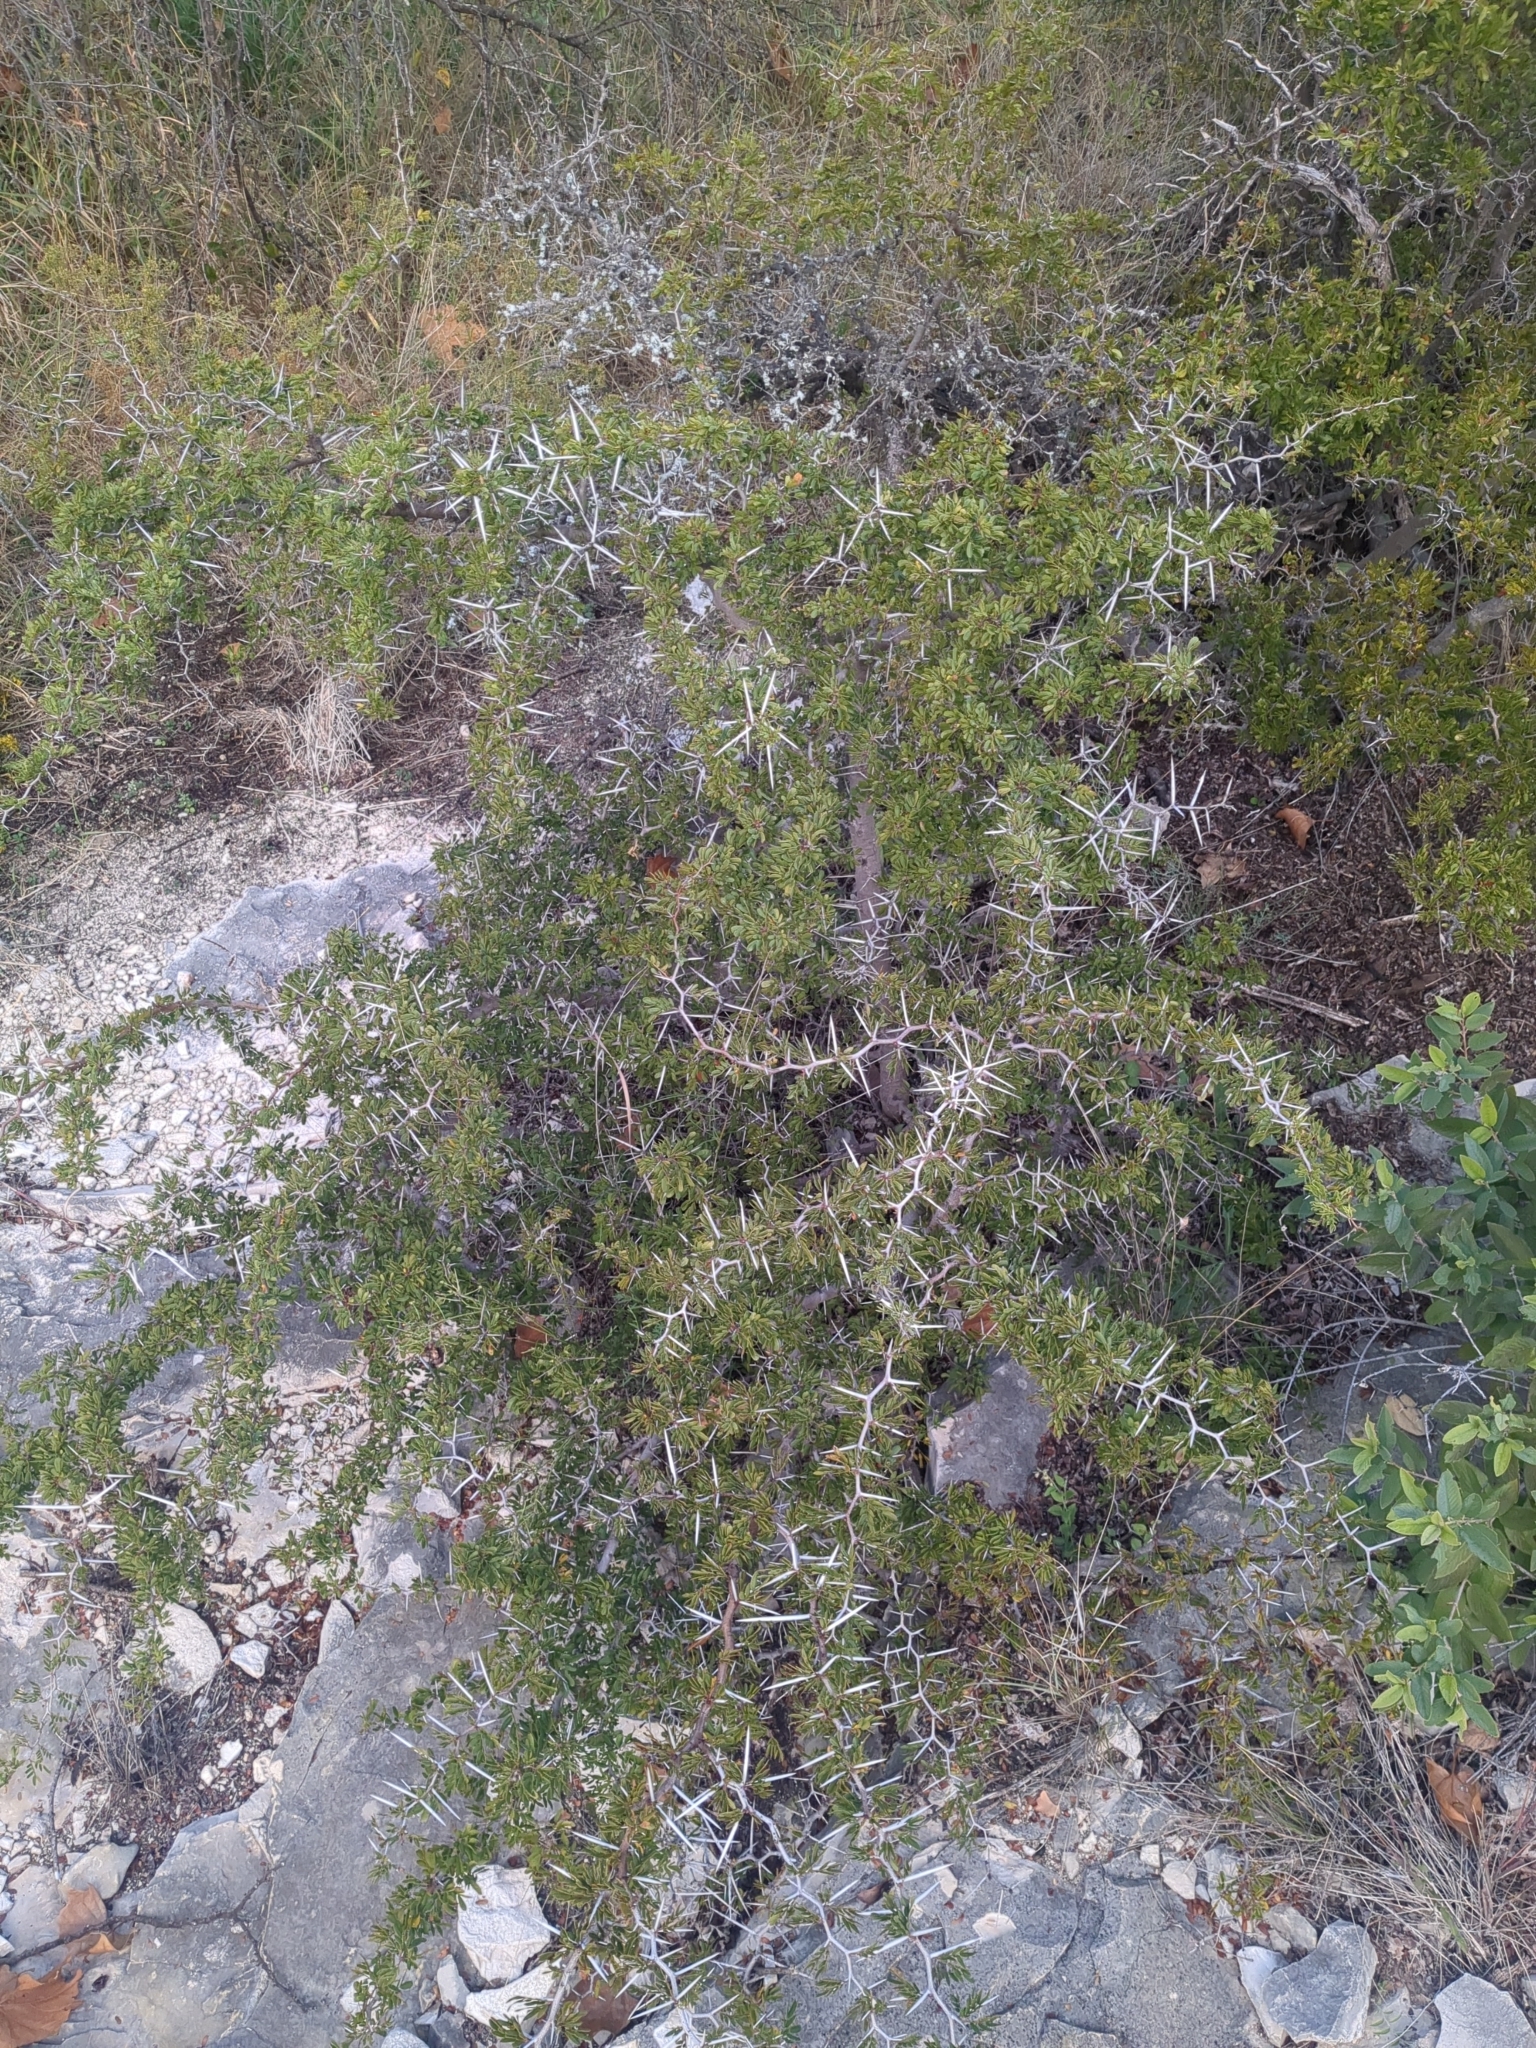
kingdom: Plantae
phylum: Tracheophyta
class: Magnoliopsida
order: Fabales
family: Fabaceae
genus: Vachellia
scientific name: Vachellia rigidula
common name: Blackbrush
